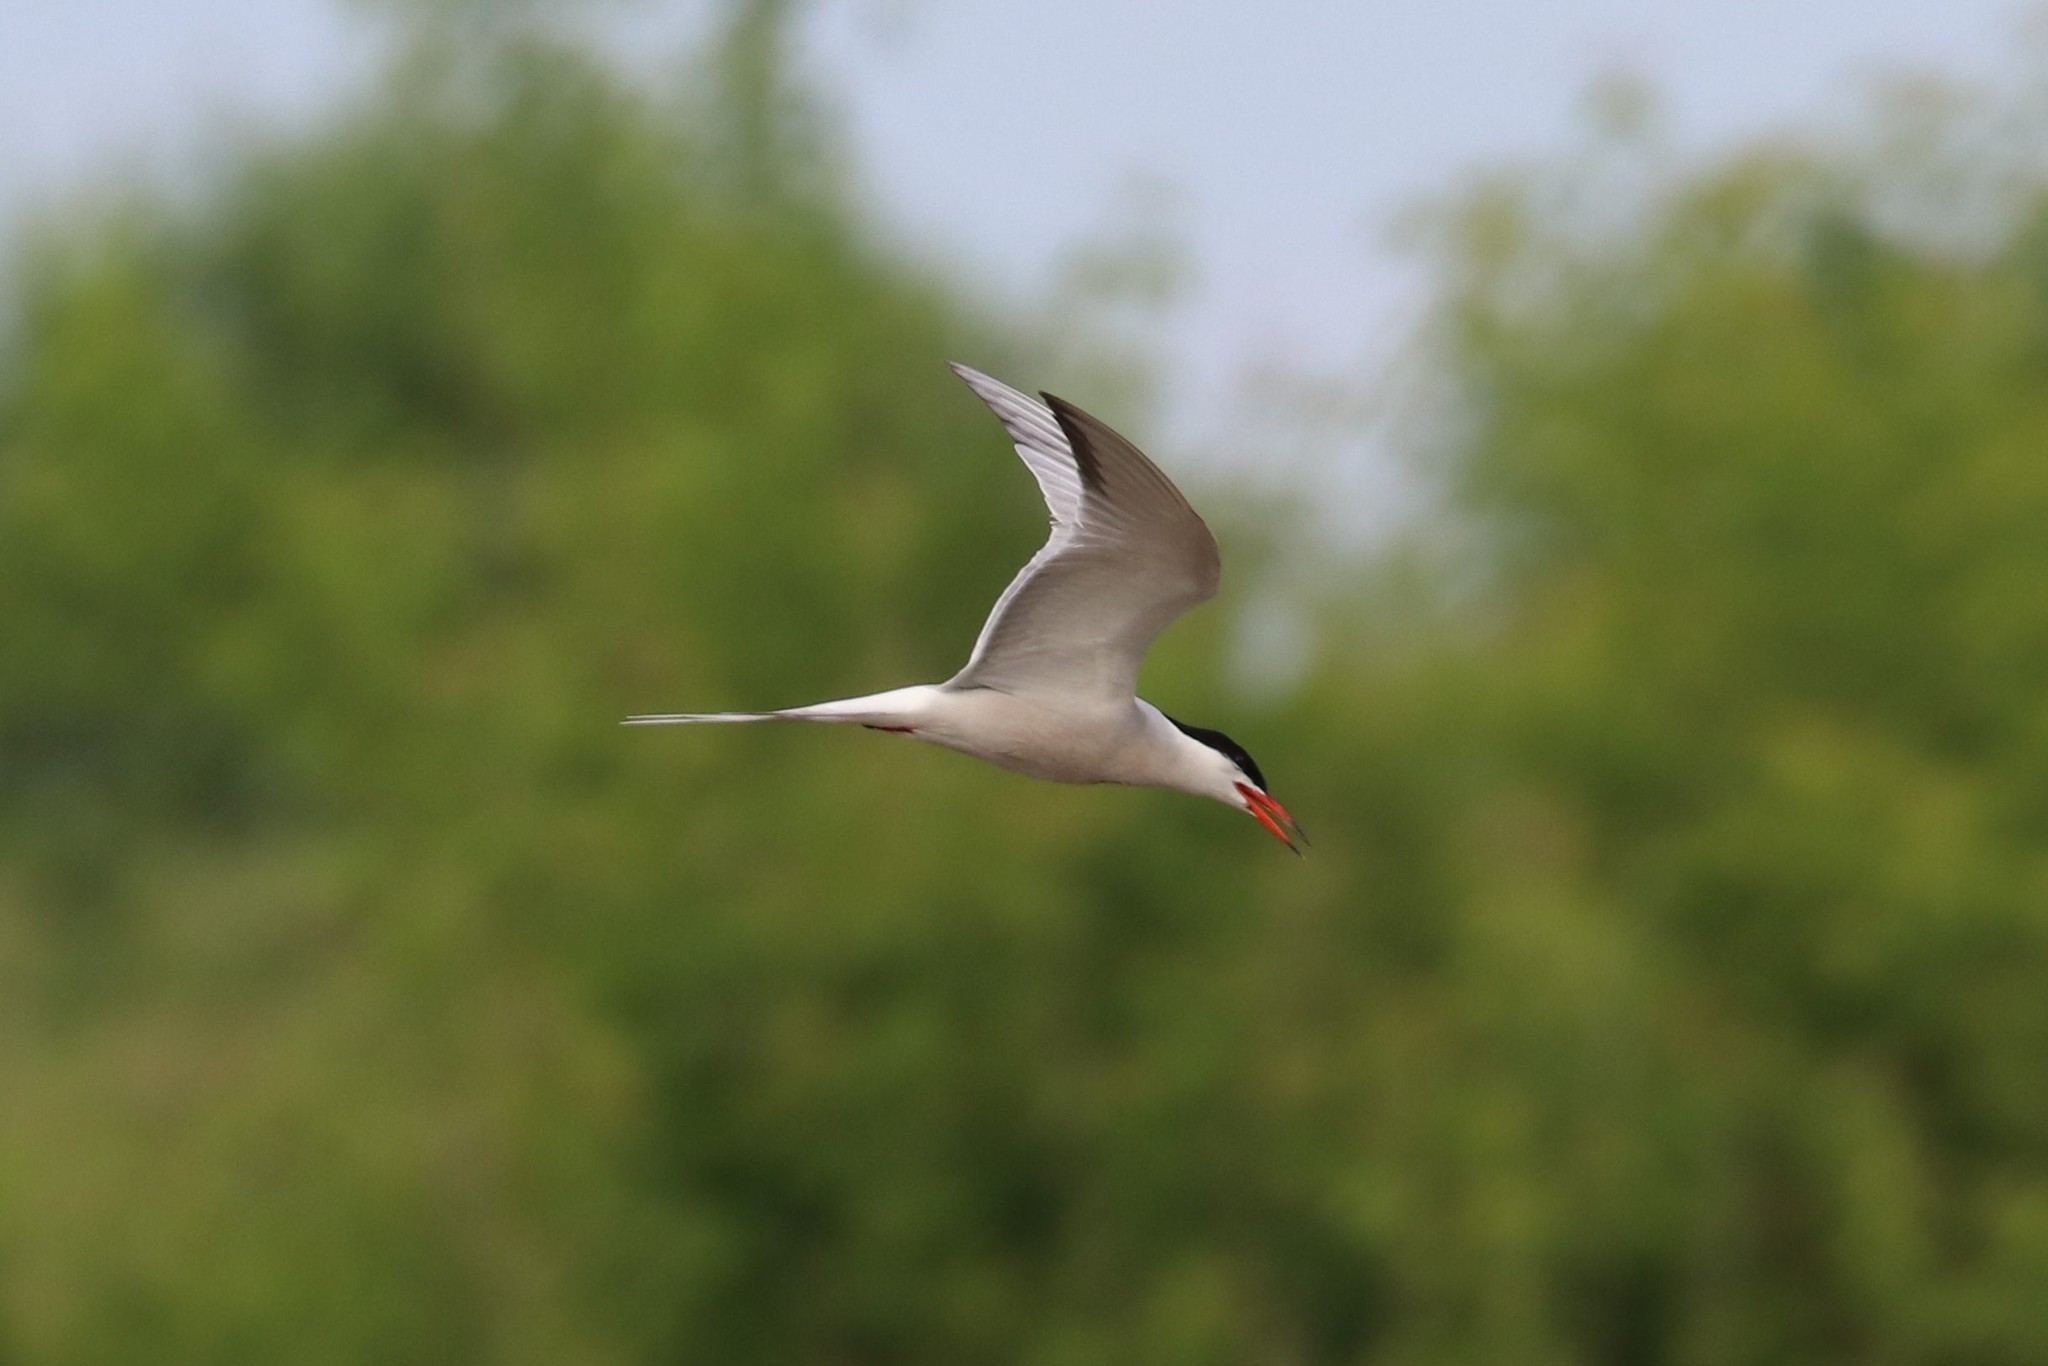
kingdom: Animalia
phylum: Chordata
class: Aves
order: Charadriiformes
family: Laridae
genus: Sterna
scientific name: Sterna hirundo
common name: Common tern
